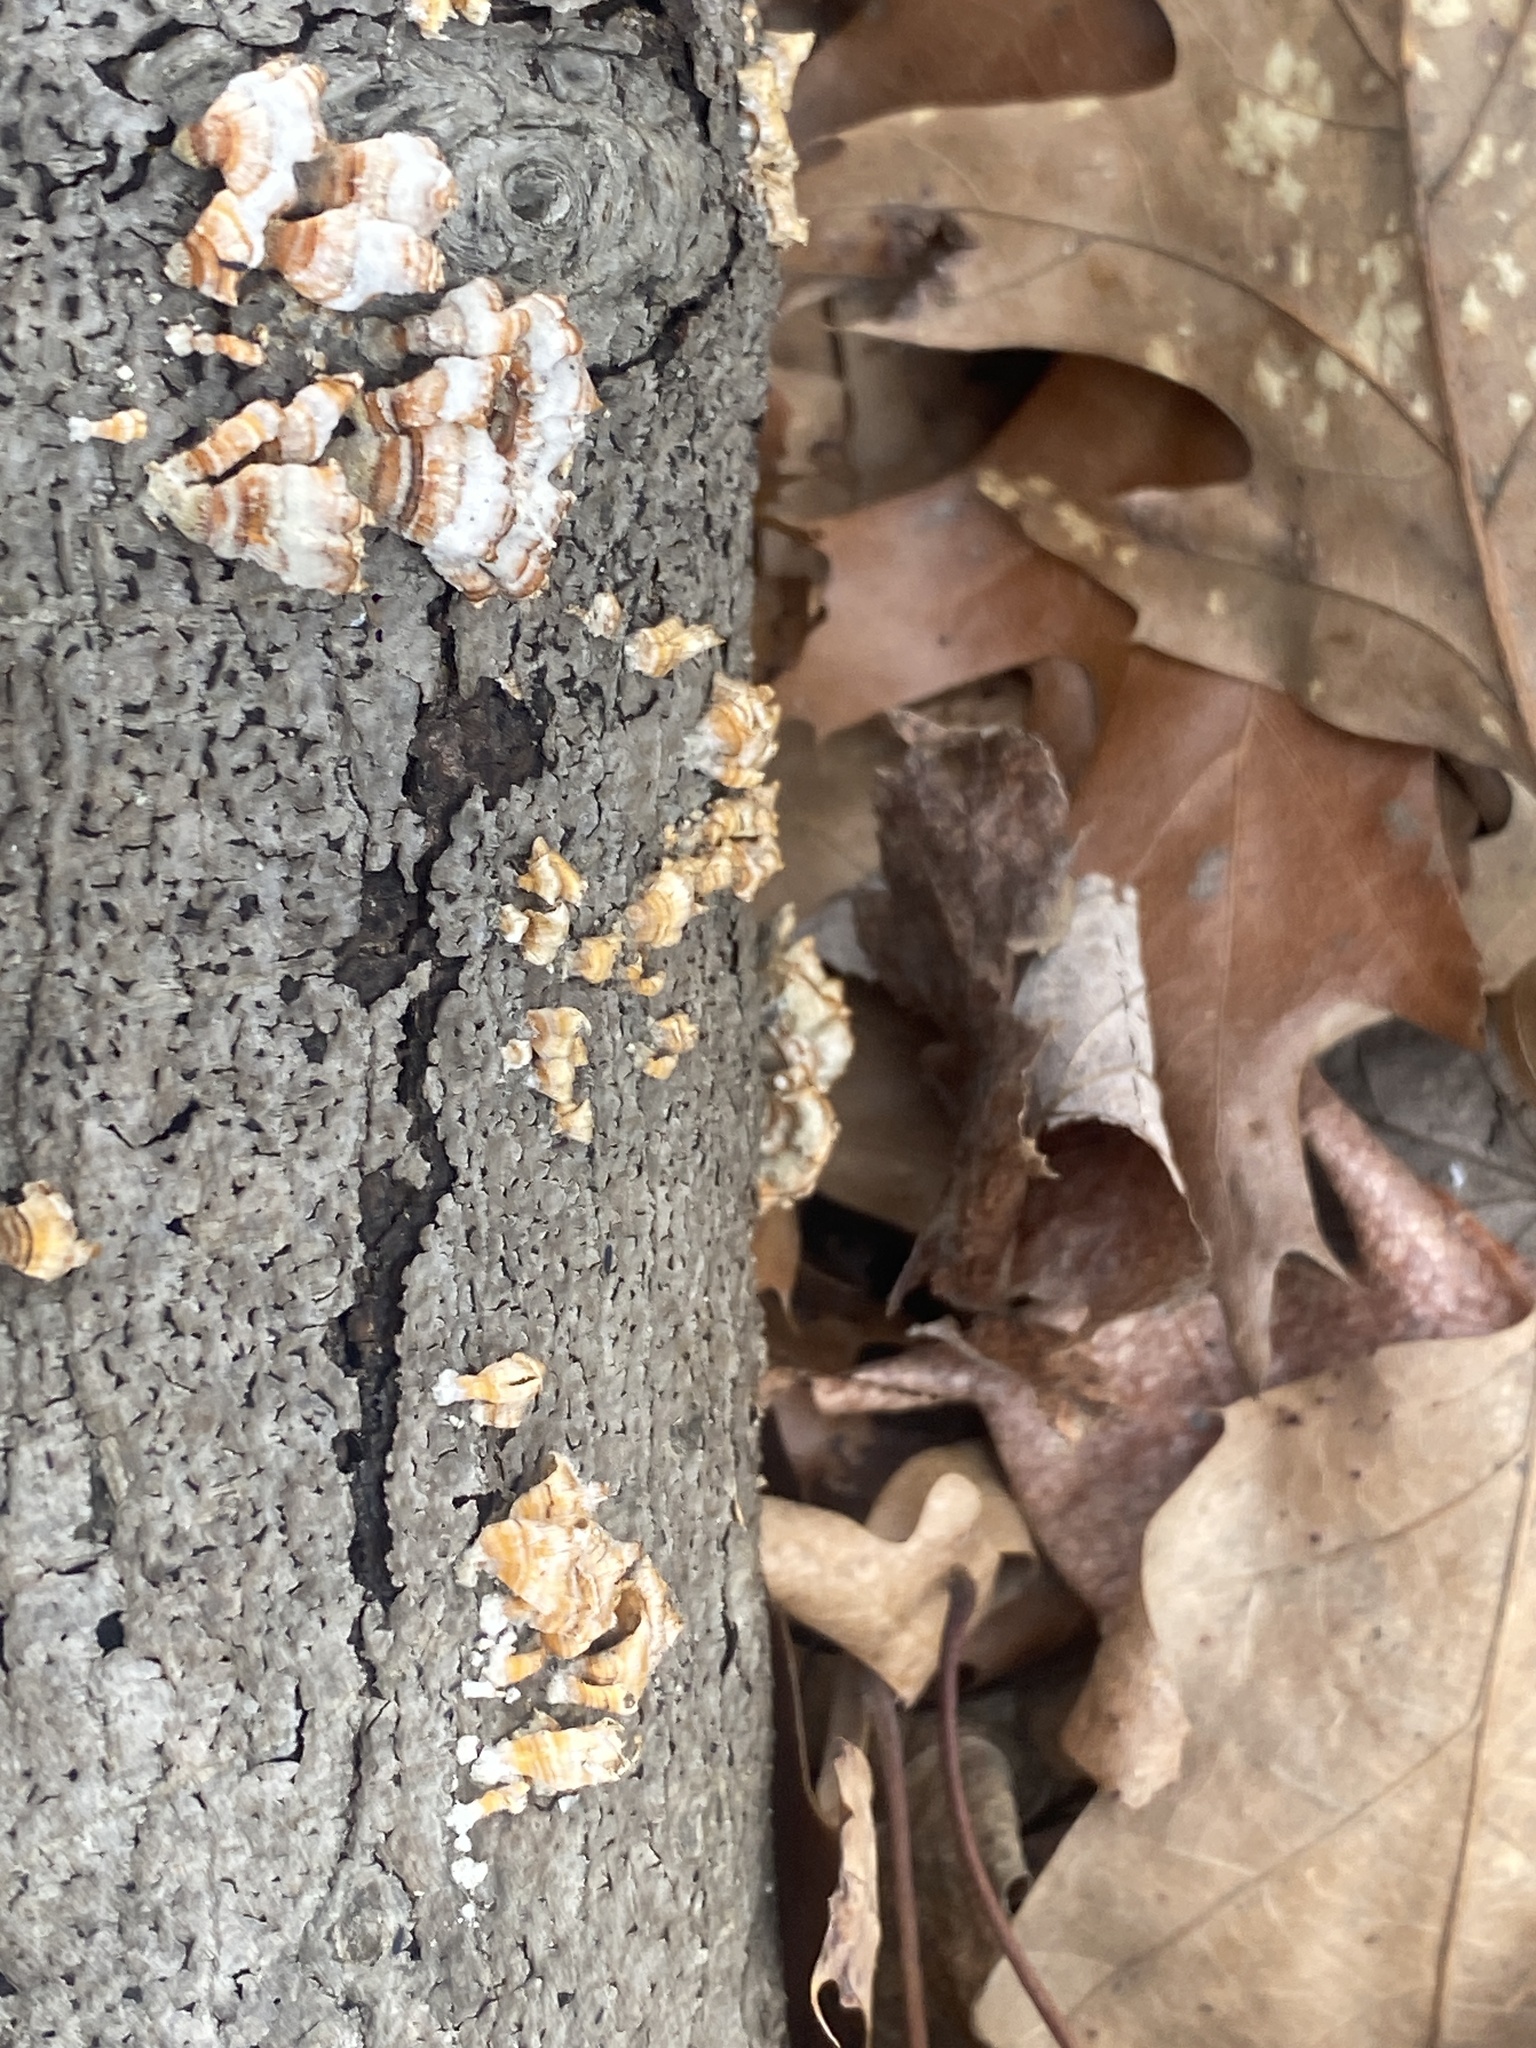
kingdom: Fungi
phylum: Basidiomycota
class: Agaricomycetes
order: Russulales
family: Stereaceae
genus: Stereum
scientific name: Stereum complicatum
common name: Crowded parchment
